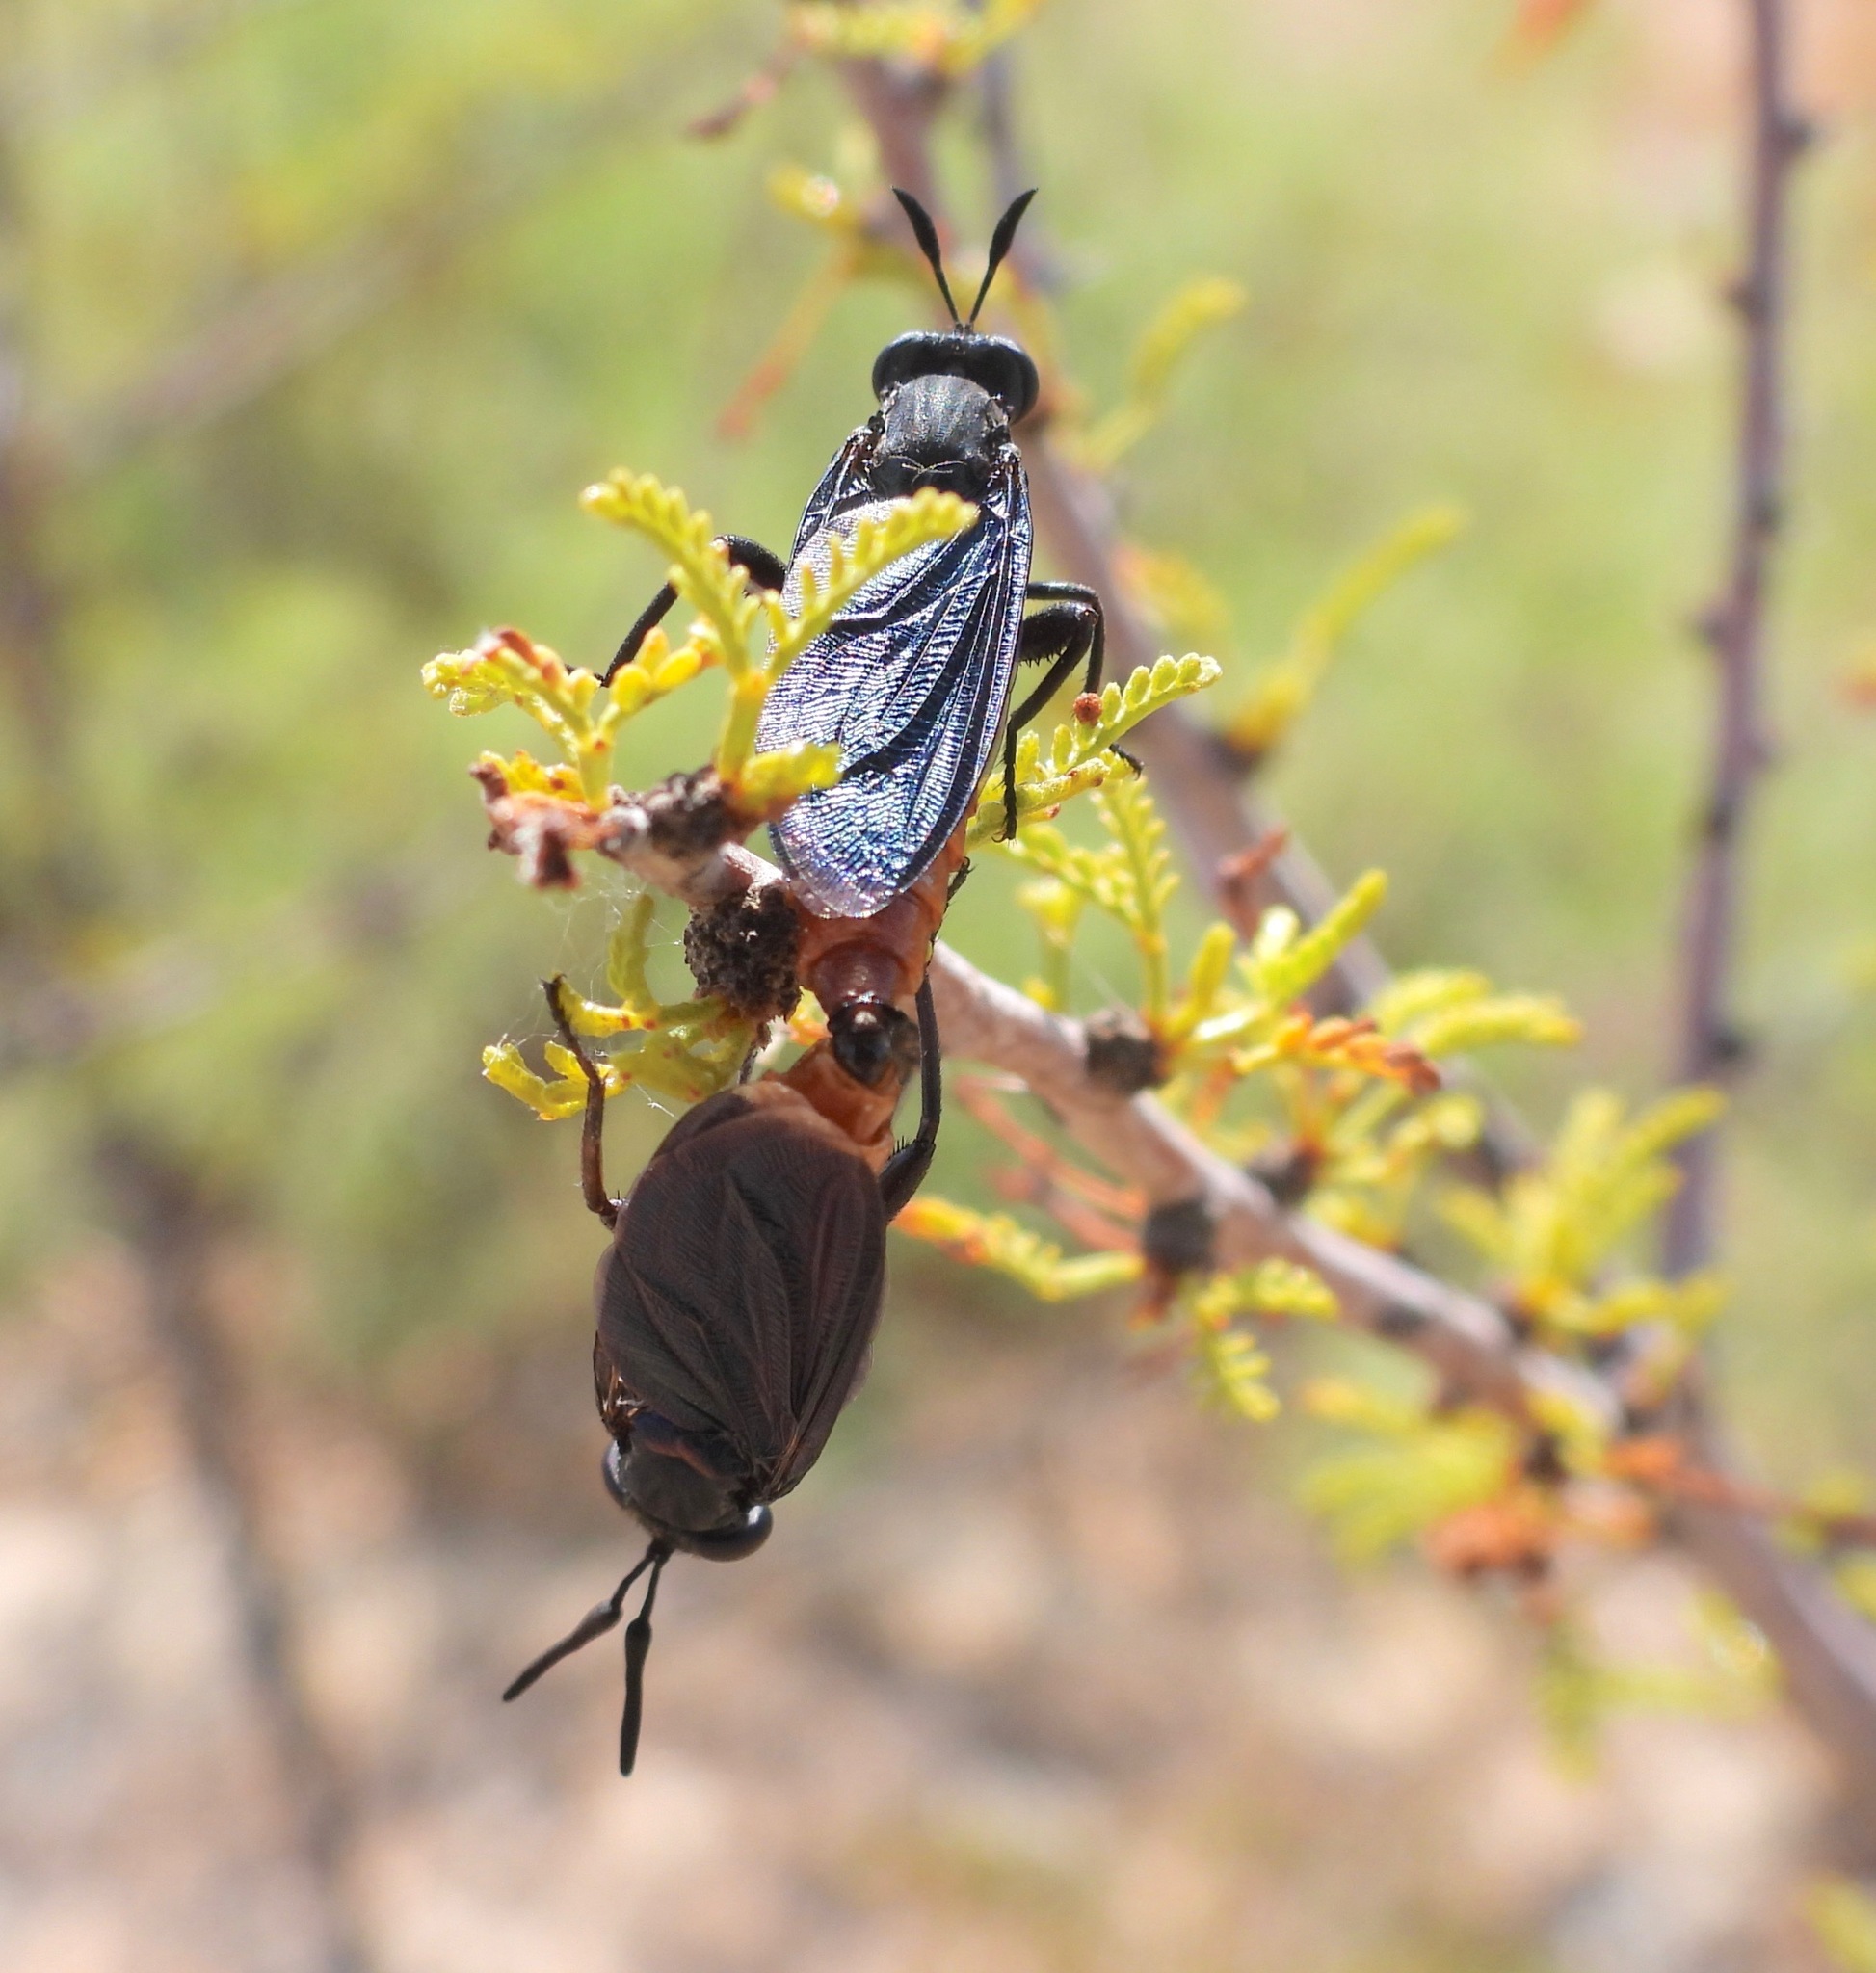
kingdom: Animalia
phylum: Arthropoda
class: Insecta
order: Diptera
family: Mydidae
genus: Phyllomydas
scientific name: Phyllomydas phyllocerus
